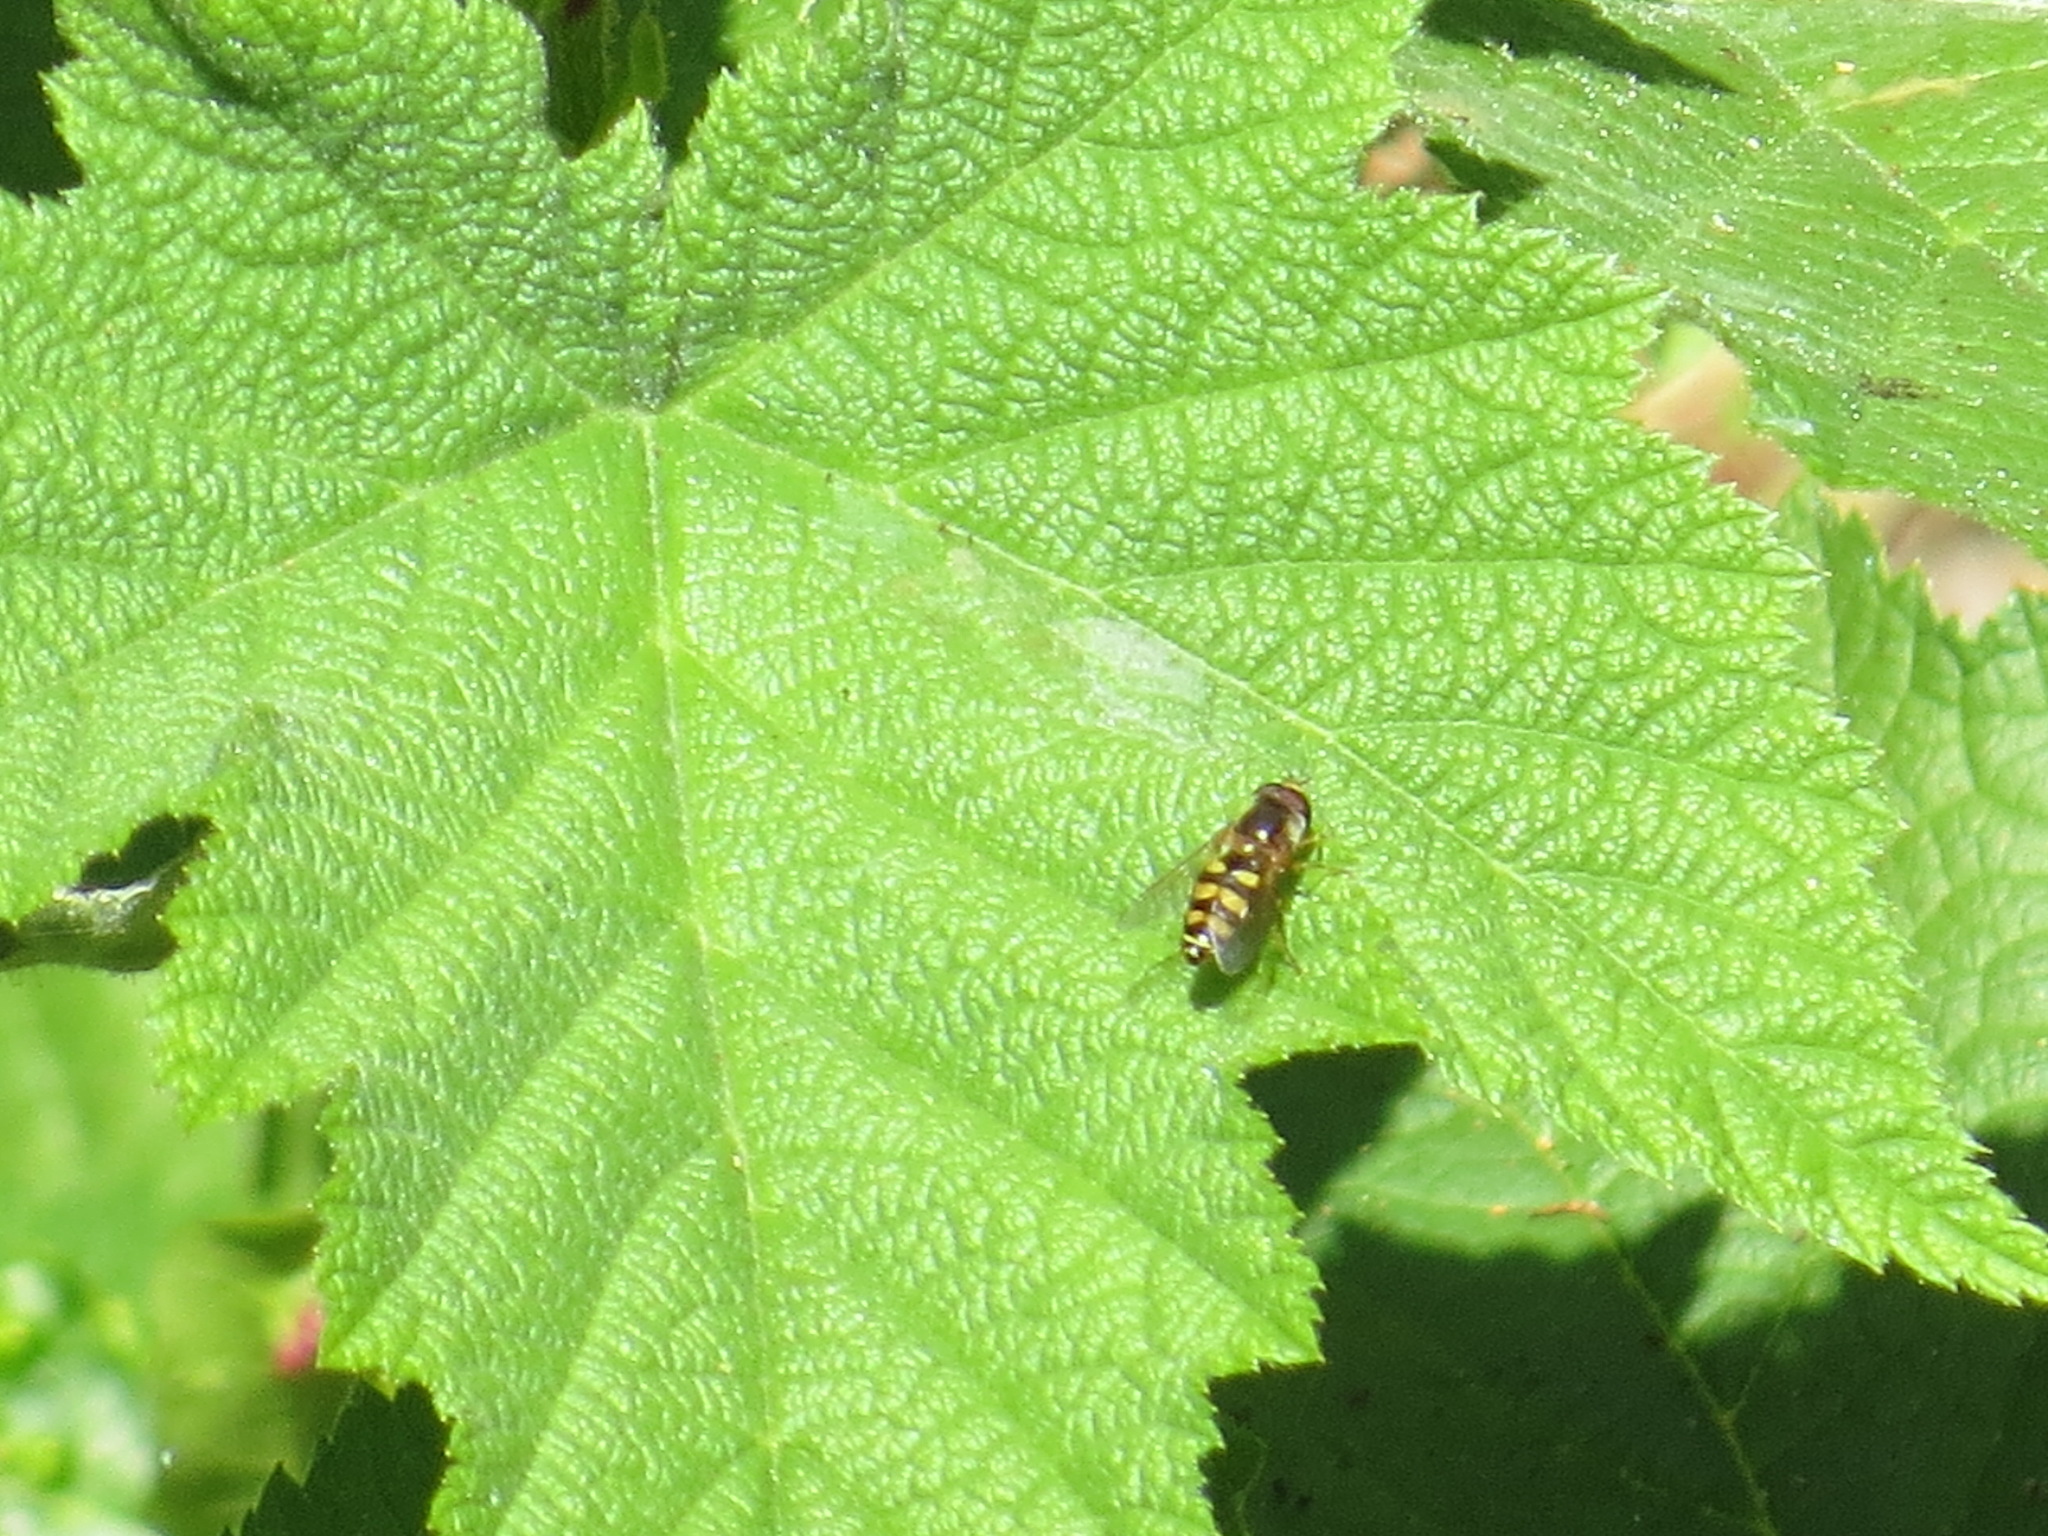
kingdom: Animalia
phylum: Arthropoda
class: Insecta
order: Diptera
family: Syrphidae
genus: Eupeodes
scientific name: Eupeodes fumipennis
